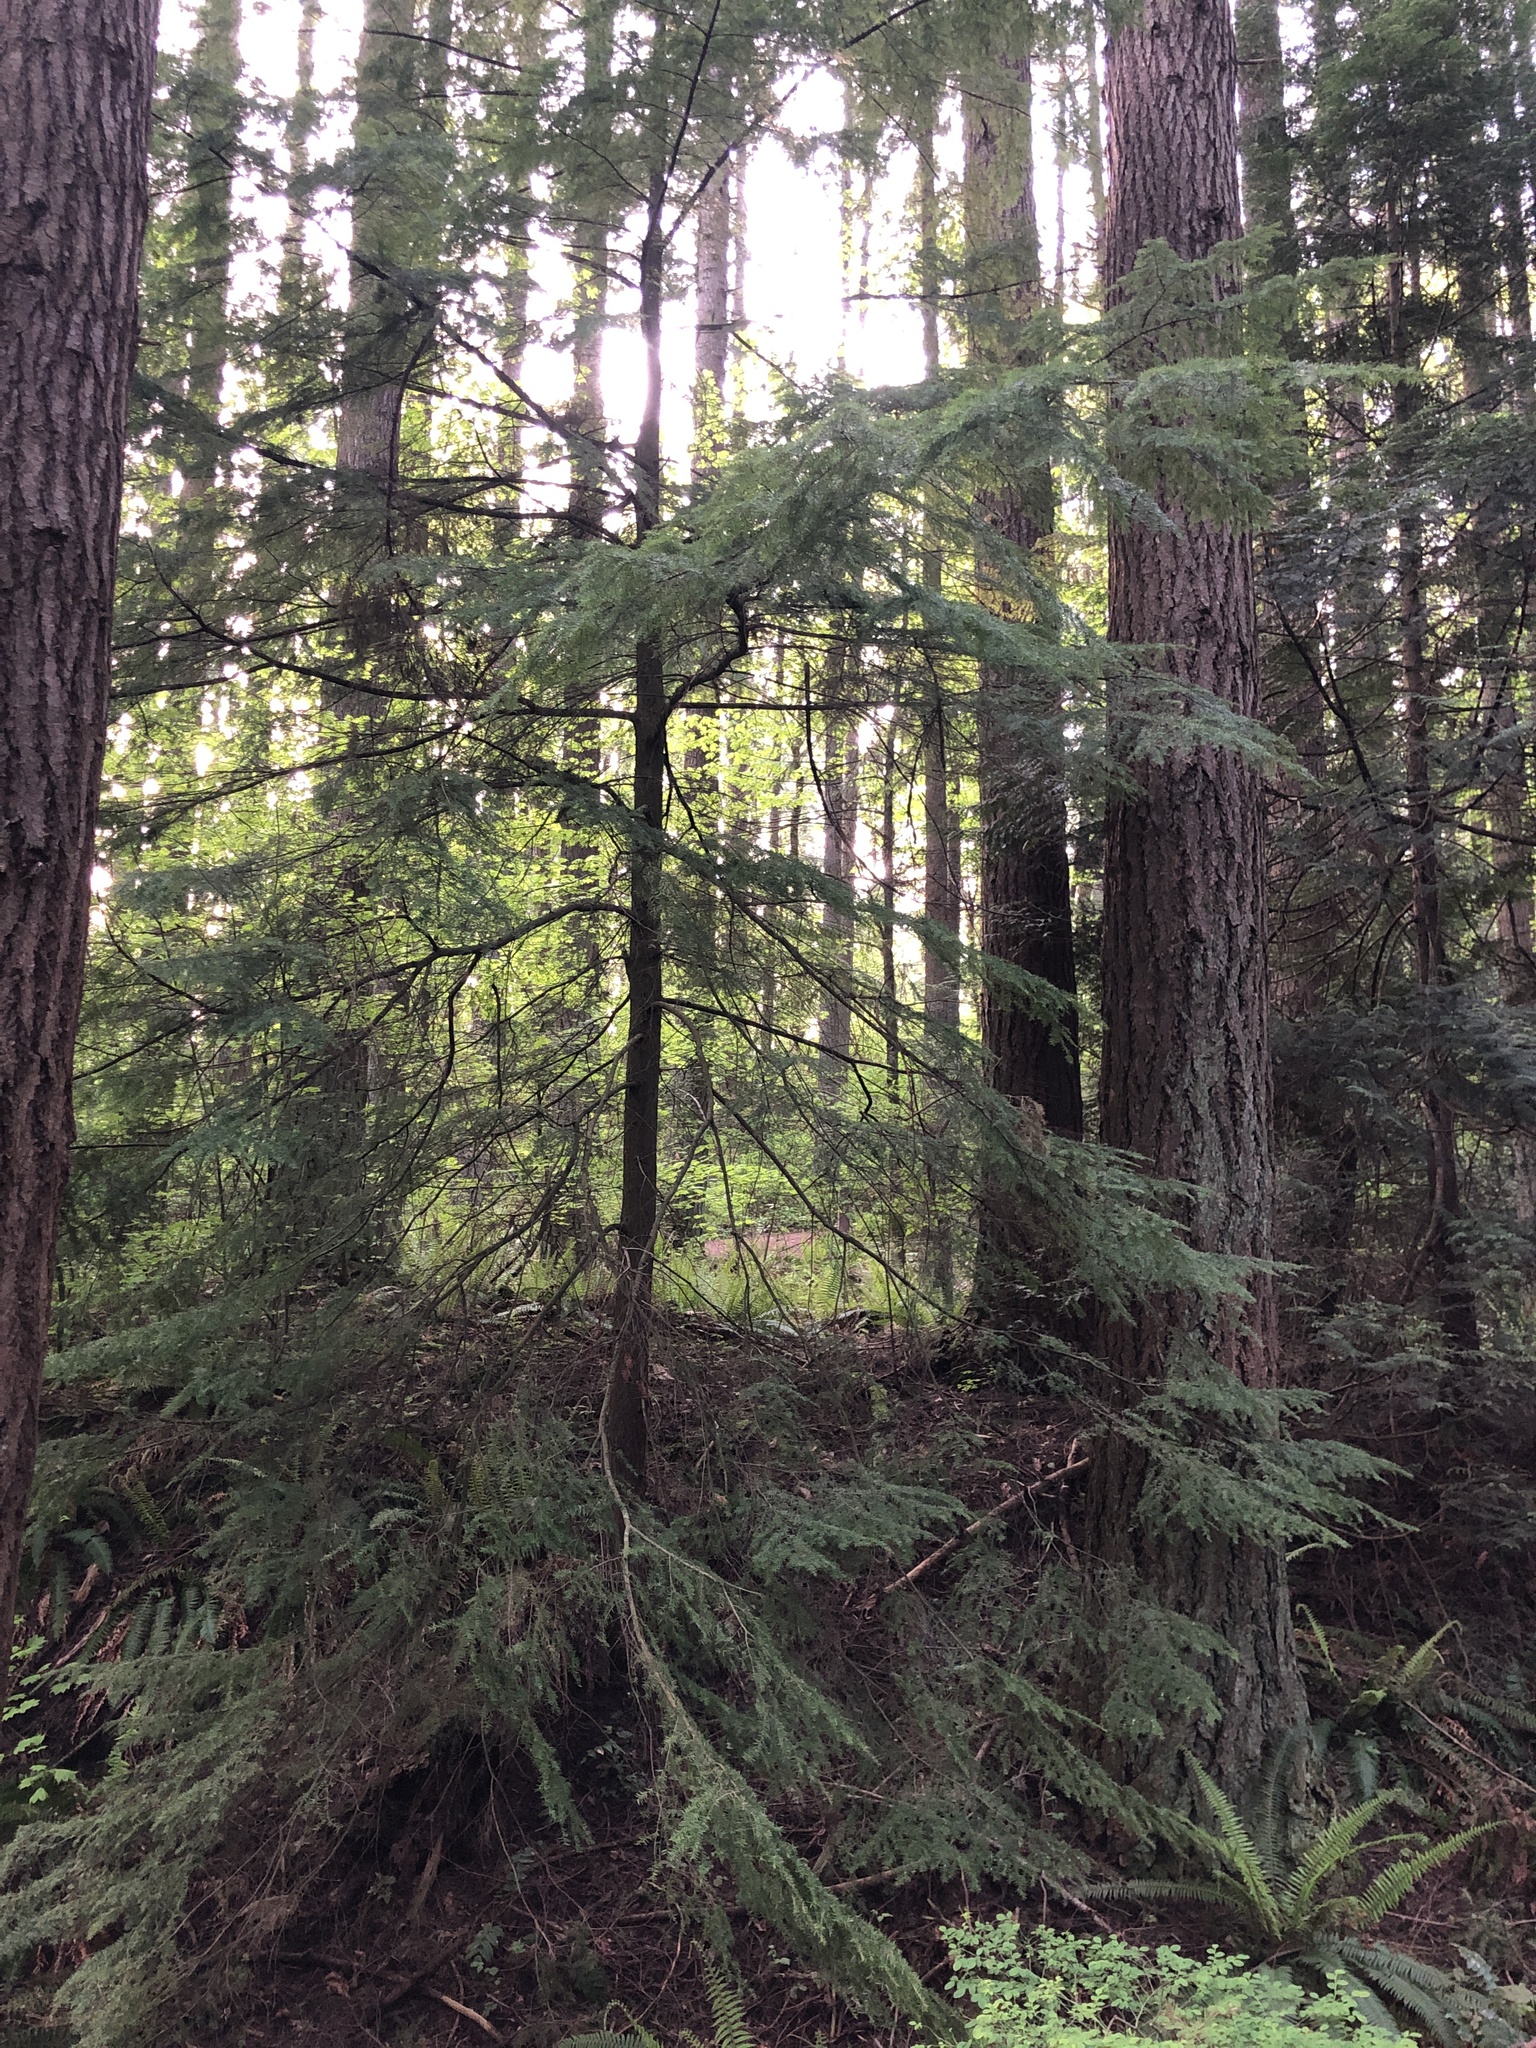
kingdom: Plantae
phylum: Tracheophyta
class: Pinopsida
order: Pinales
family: Pinaceae
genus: Tsuga
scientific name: Tsuga heterophylla
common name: Western hemlock
